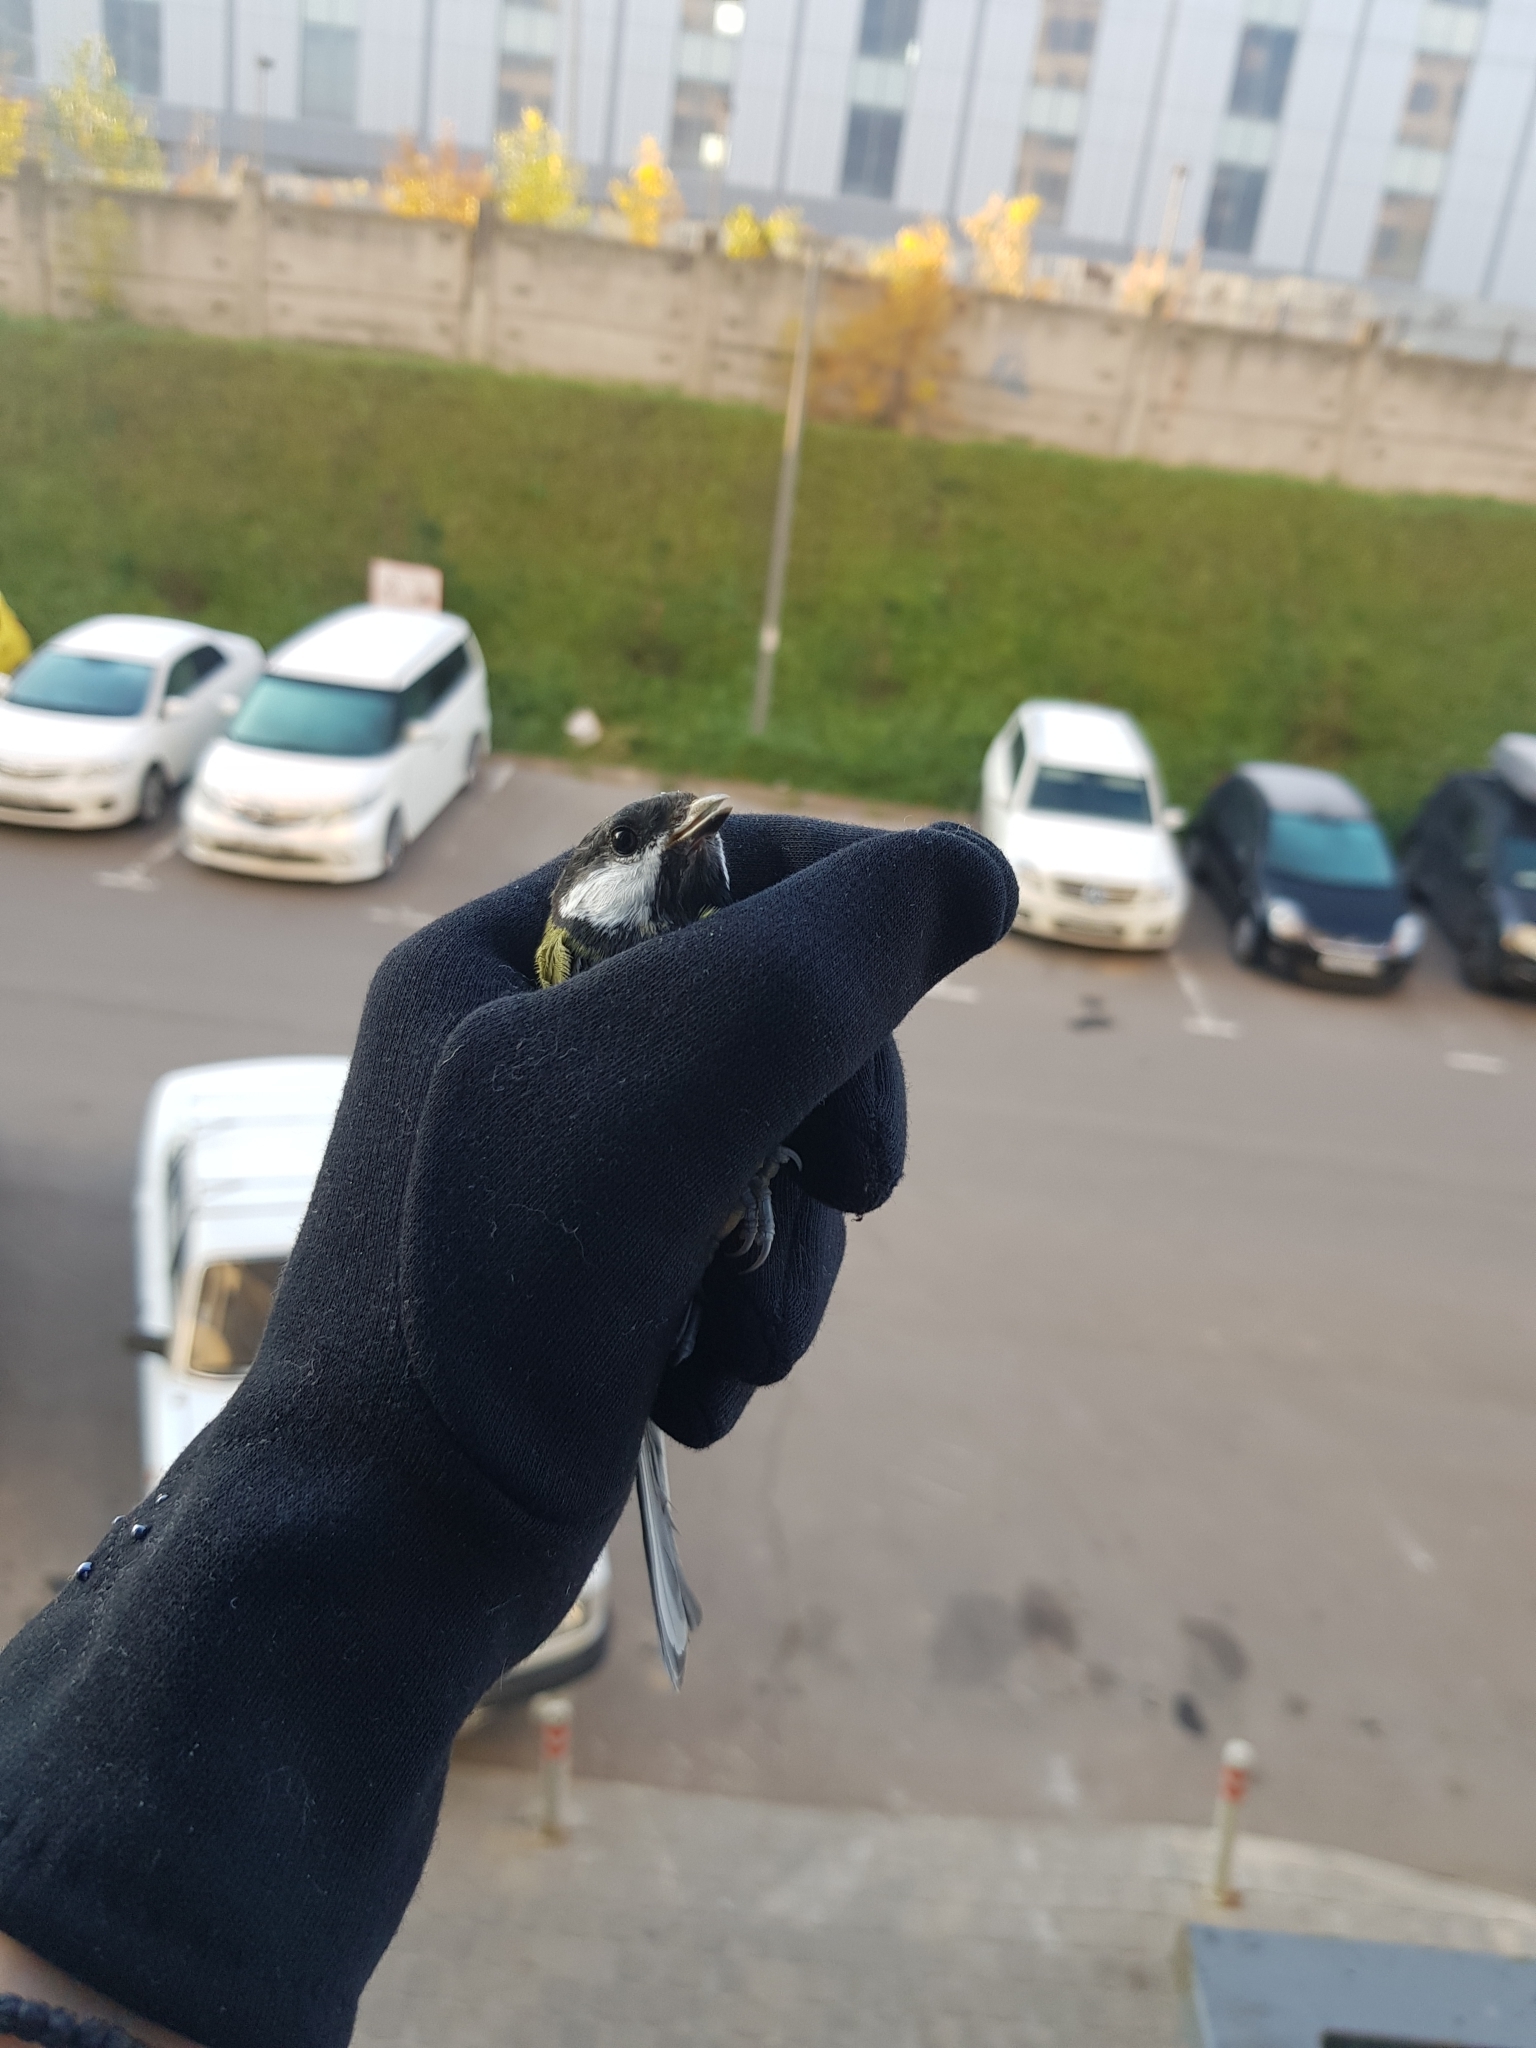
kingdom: Animalia
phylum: Chordata
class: Aves
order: Passeriformes
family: Paridae
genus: Parus
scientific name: Parus major
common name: Great tit
